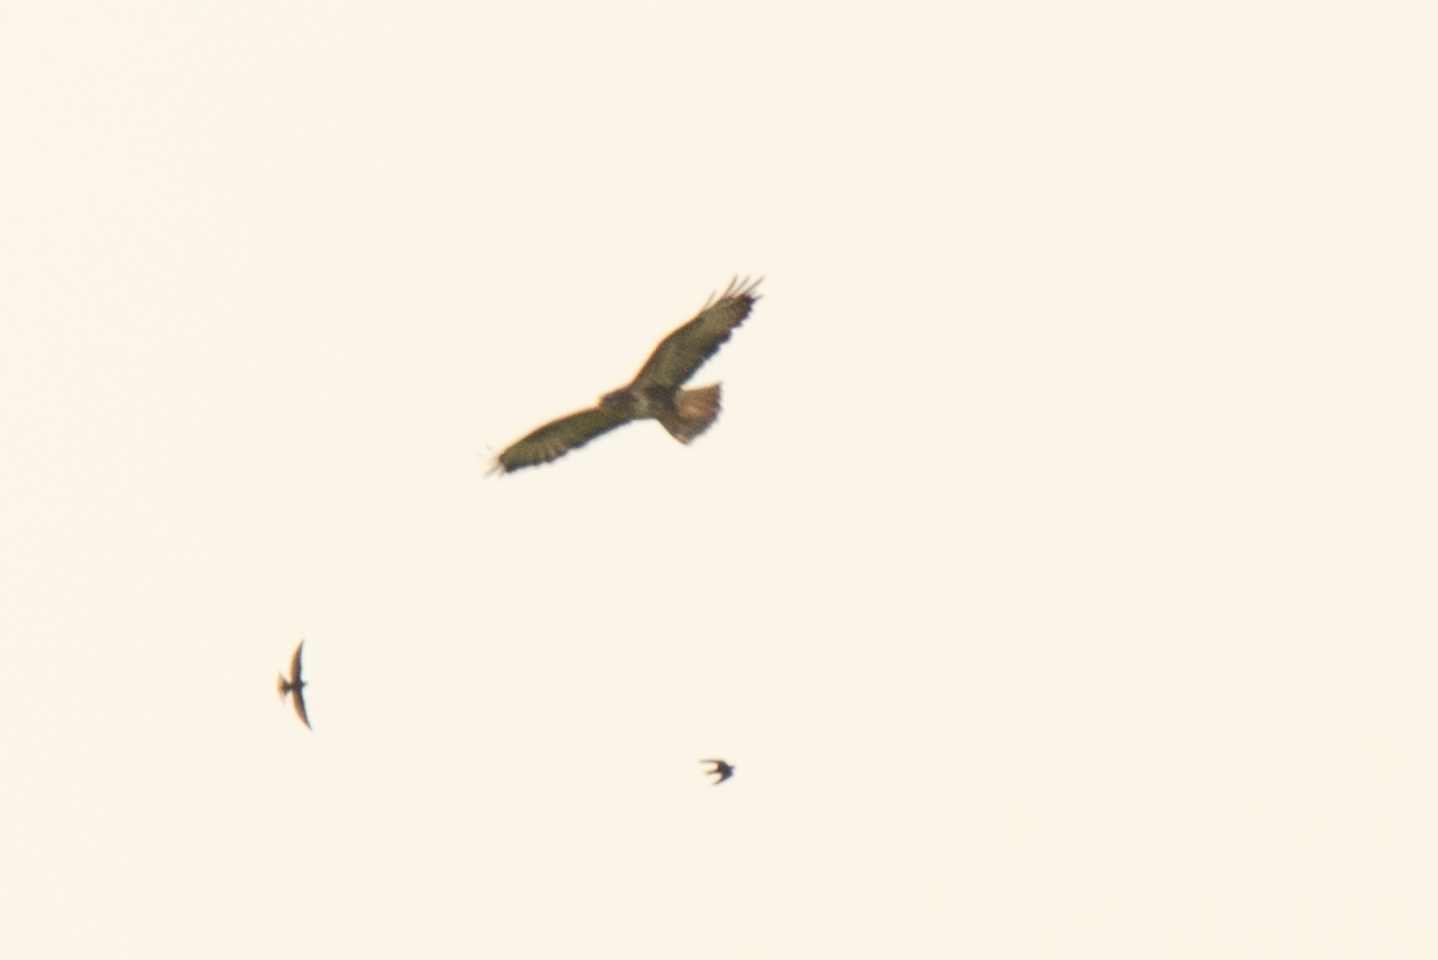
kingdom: Animalia
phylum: Chordata
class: Aves
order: Accipitriformes
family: Accipitridae
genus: Buteo
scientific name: Buteo buteo
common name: Common buzzard
